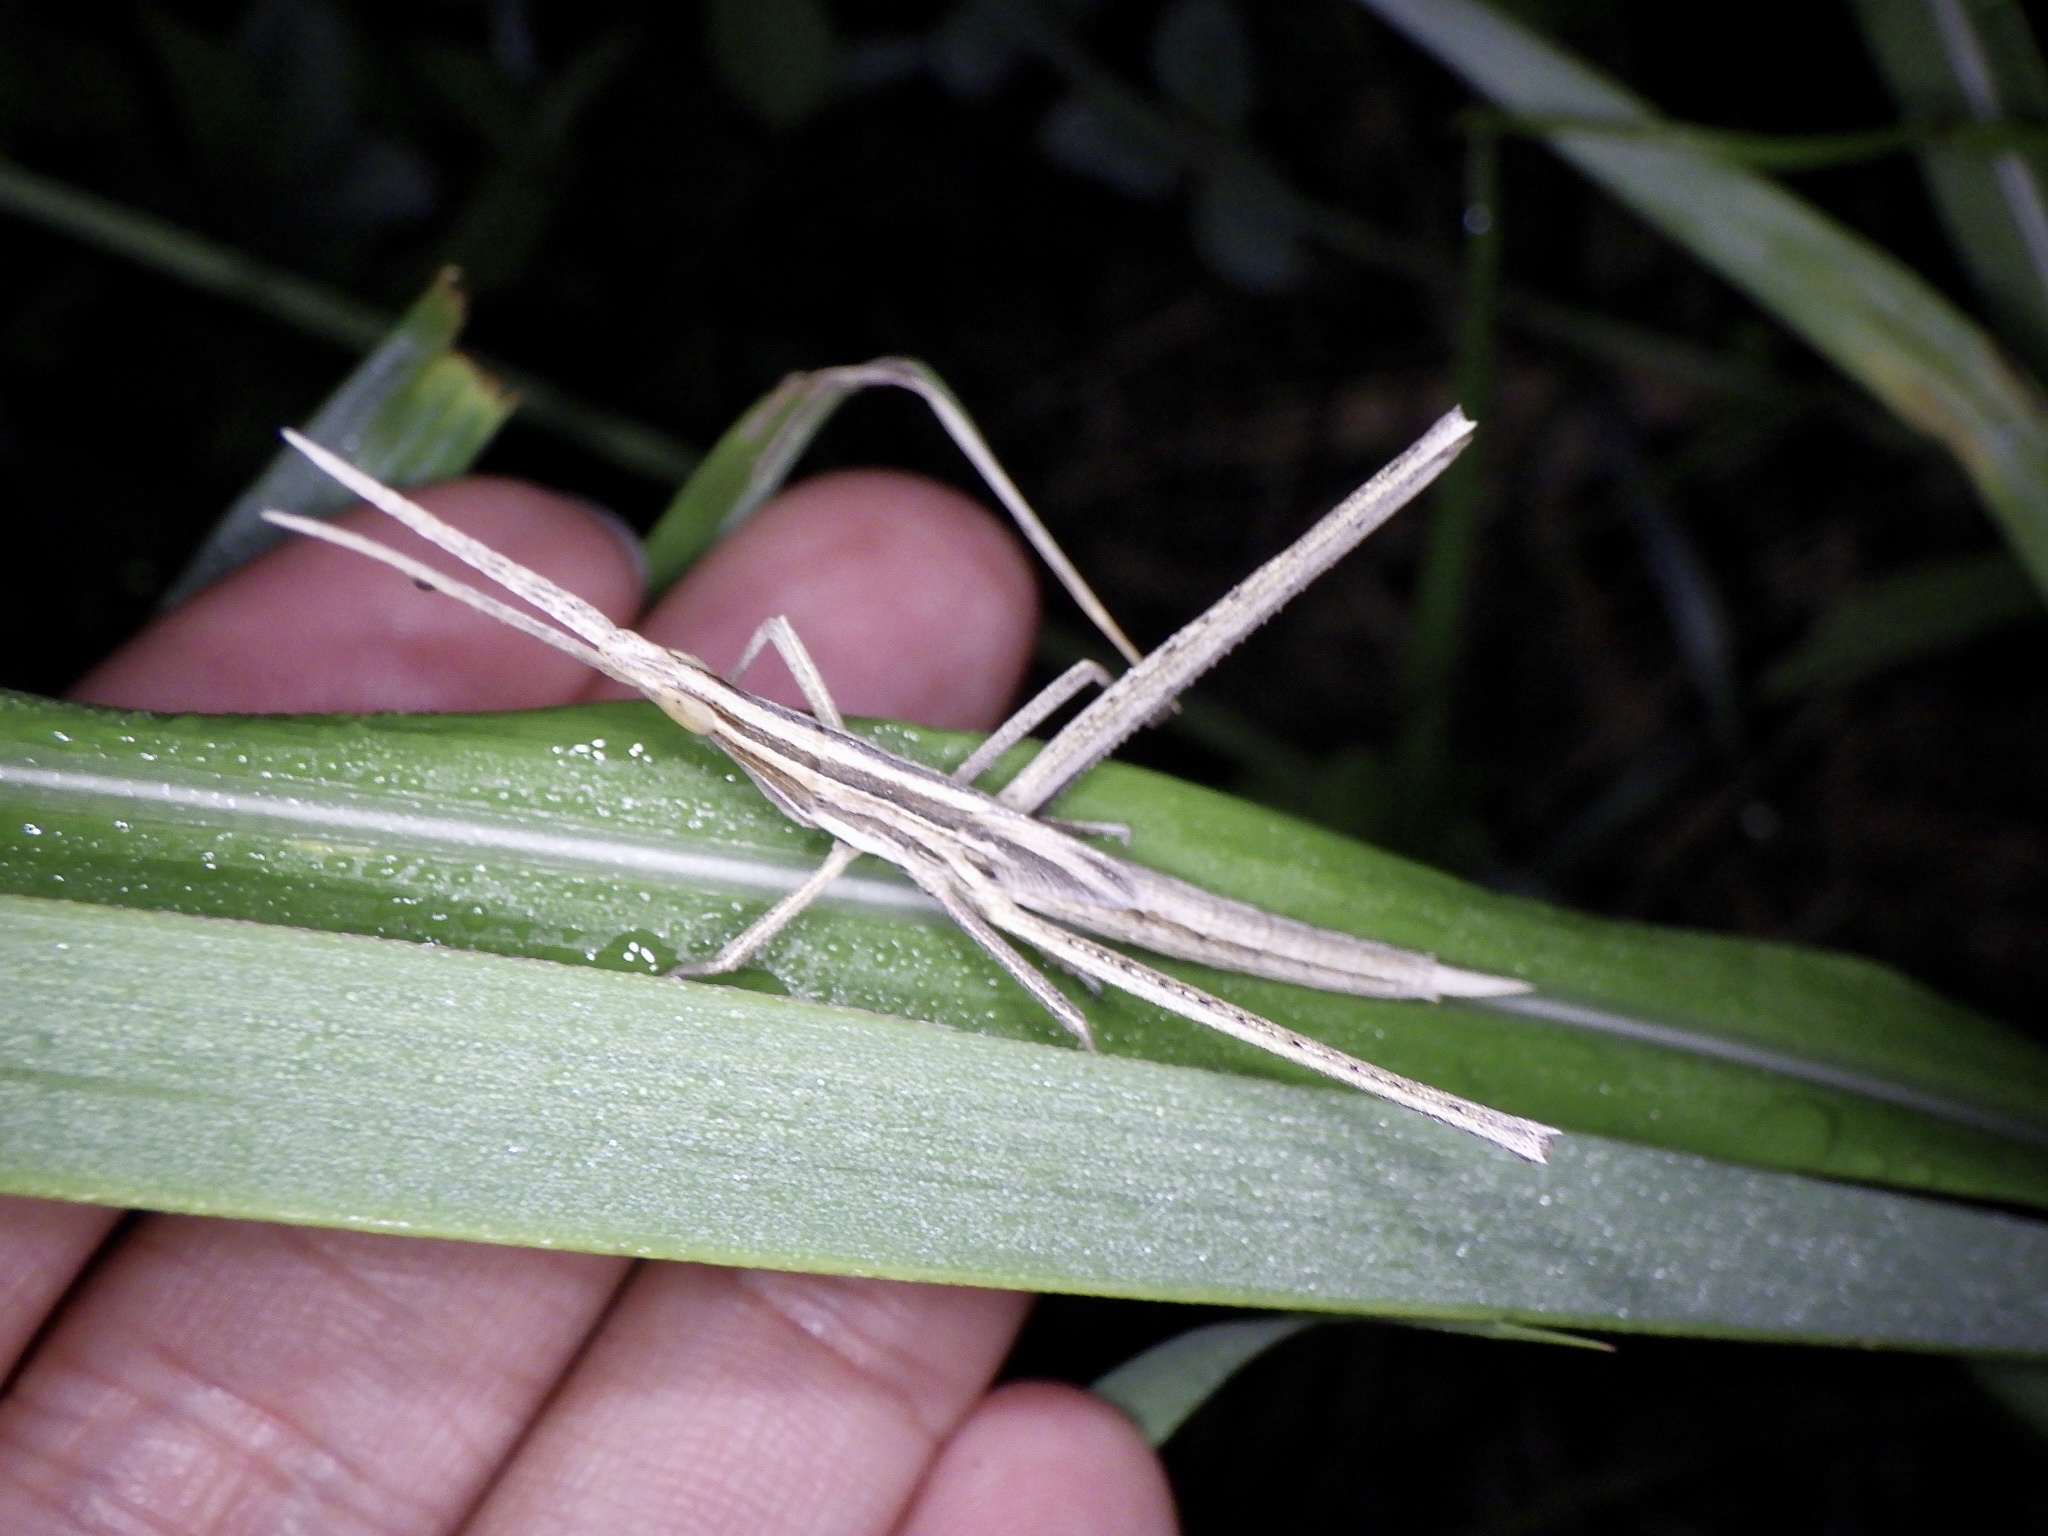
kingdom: Animalia
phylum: Arthropoda
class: Insecta
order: Orthoptera
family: Acrididae
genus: Acrida
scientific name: Acrida cinerea
